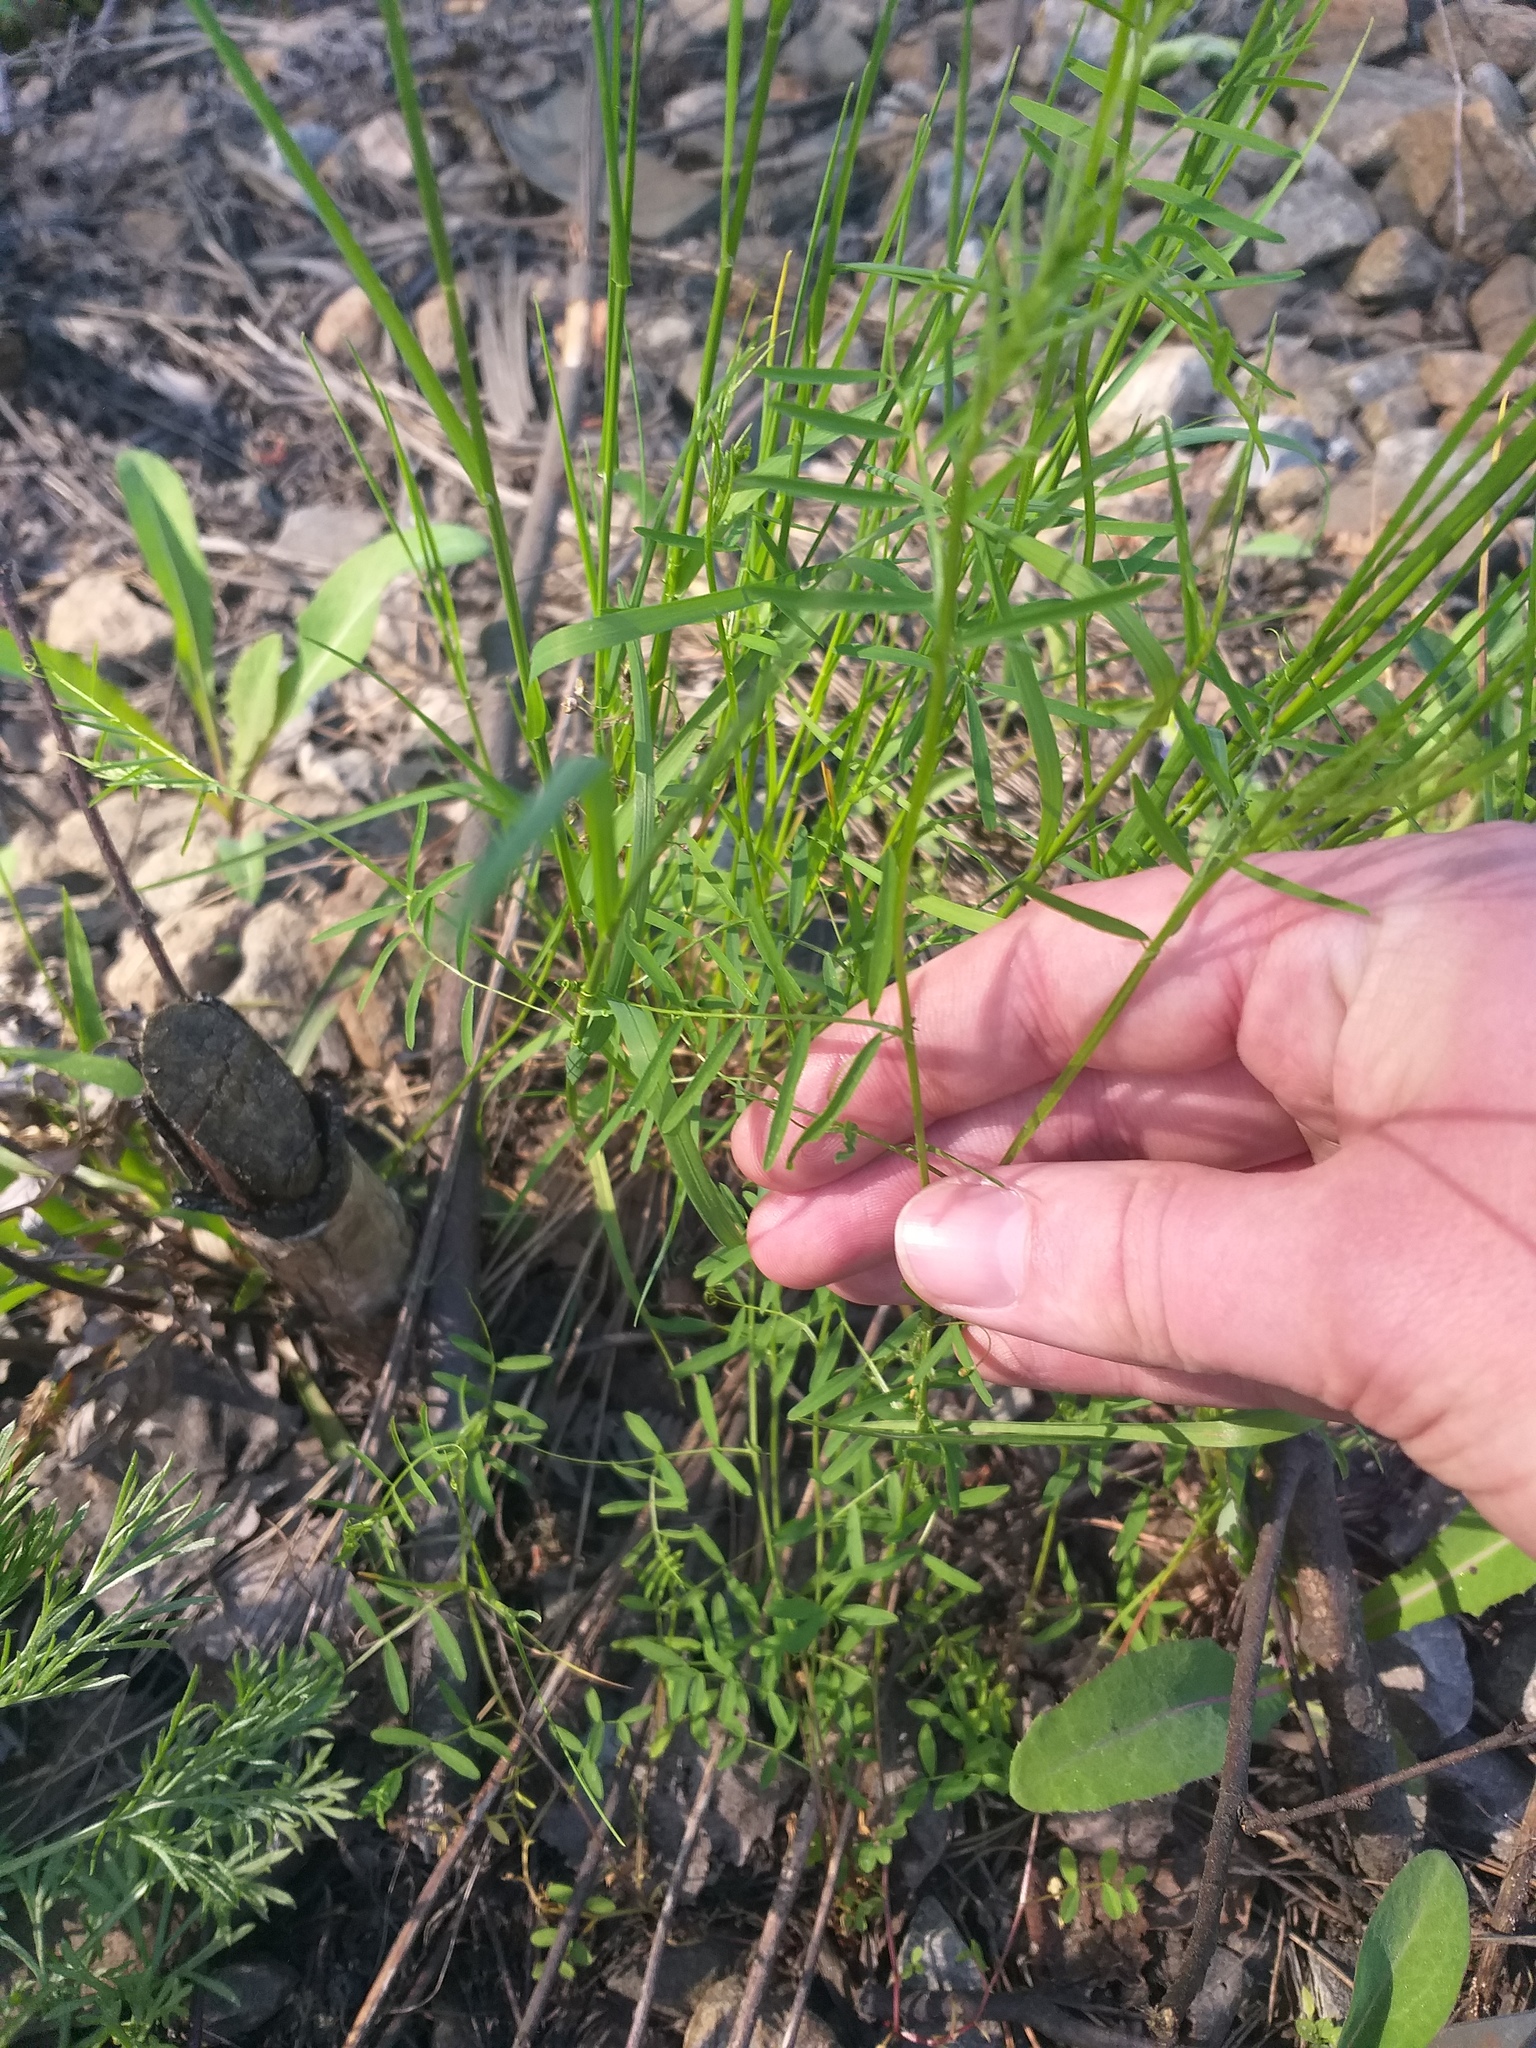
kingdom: Plantae
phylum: Tracheophyta
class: Magnoliopsida
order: Fabales
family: Fabaceae
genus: Vicia
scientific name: Vicia tetrasperma
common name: Smooth tare
